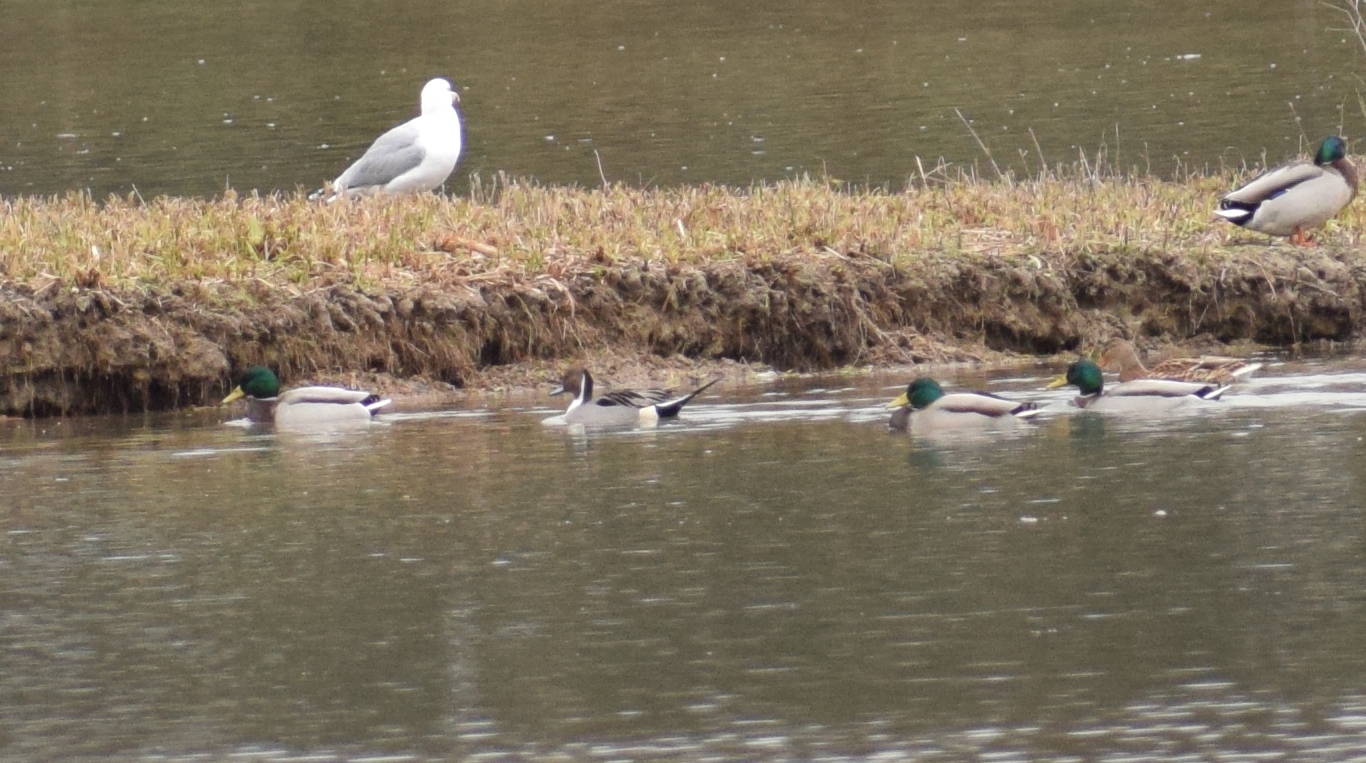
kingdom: Animalia
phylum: Chordata
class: Aves
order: Anseriformes
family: Anatidae
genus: Anas
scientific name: Anas acuta
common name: Northern pintail
